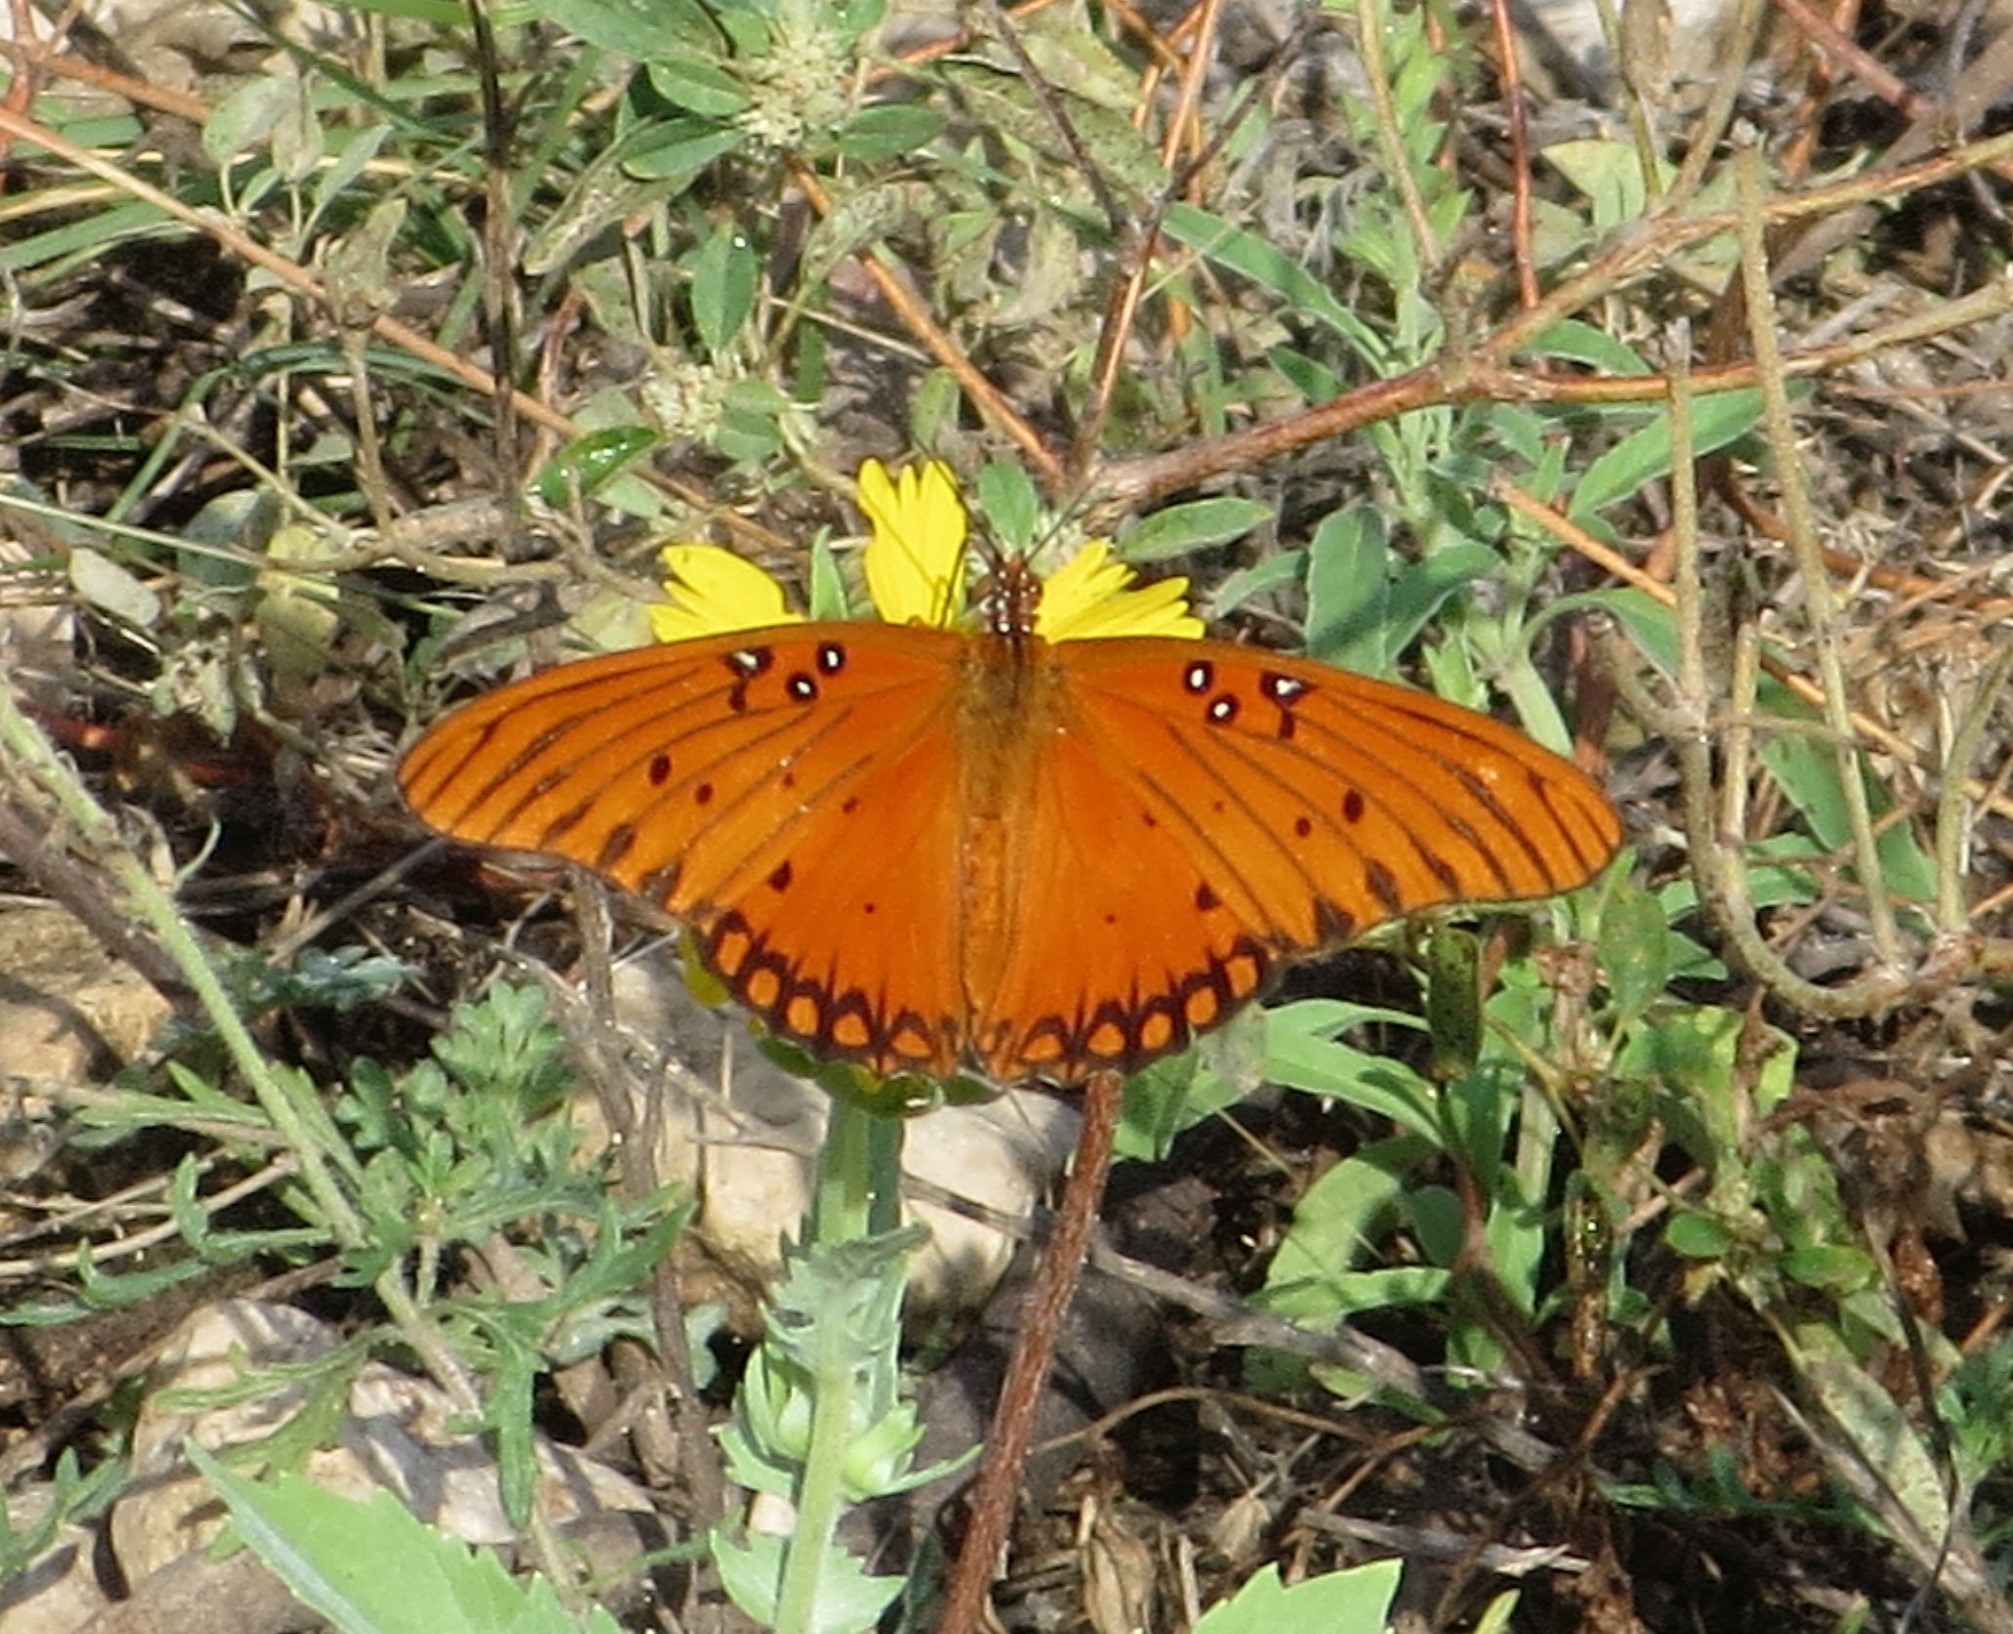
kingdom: Animalia
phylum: Arthropoda
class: Insecta
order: Lepidoptera
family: Nymphalidae
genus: Dione
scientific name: Dione vanillae
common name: Gulf fritillary
